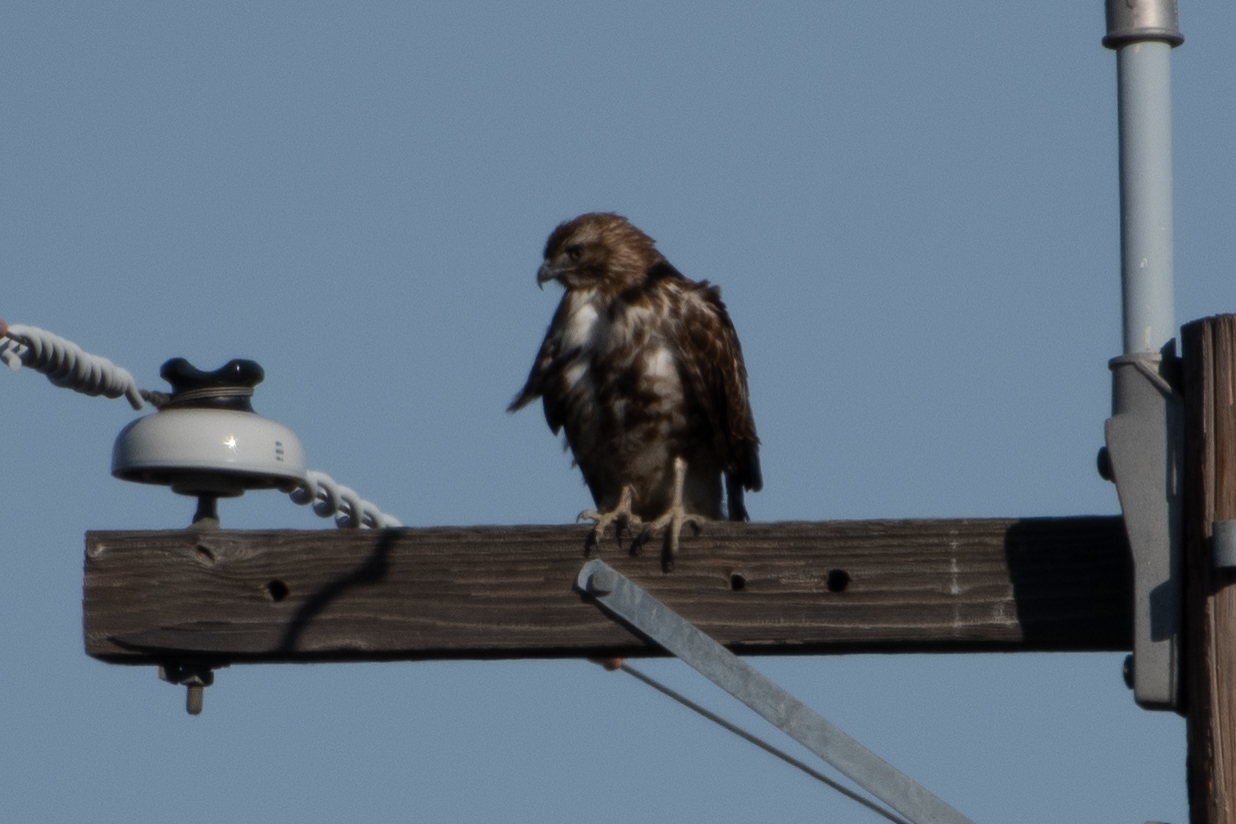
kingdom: Animalia
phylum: Chordata
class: Aves
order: Accipitriformes
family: Accipitridae
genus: Buteo
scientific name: Buteo jamaicensis
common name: Red-tailed hawk
